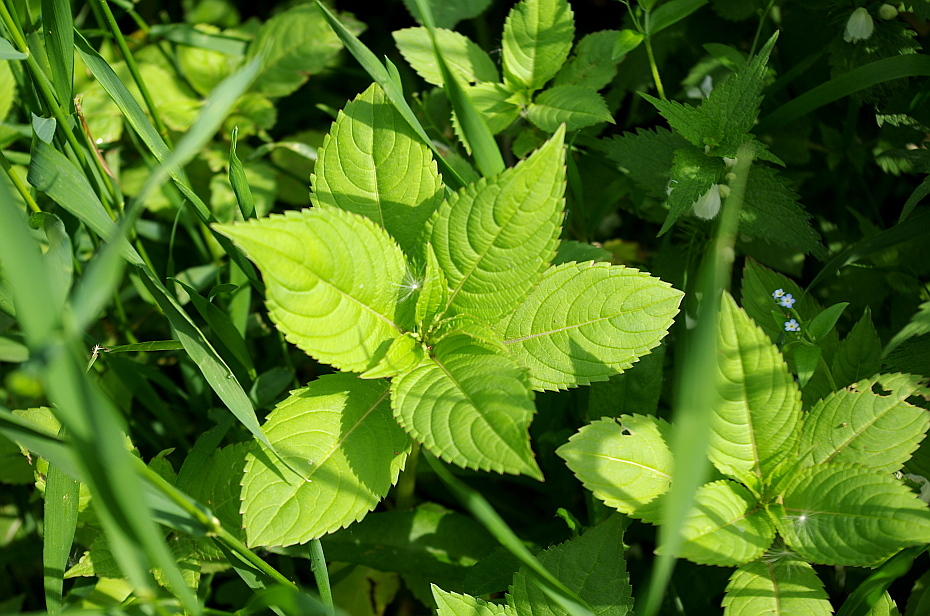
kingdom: Plantae
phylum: Tracheophyta
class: Magnoliopsida
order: Ericales
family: Balsaminaceae
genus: Impatiens
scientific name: Impatiens glandulifera
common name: Himalayan balsam
